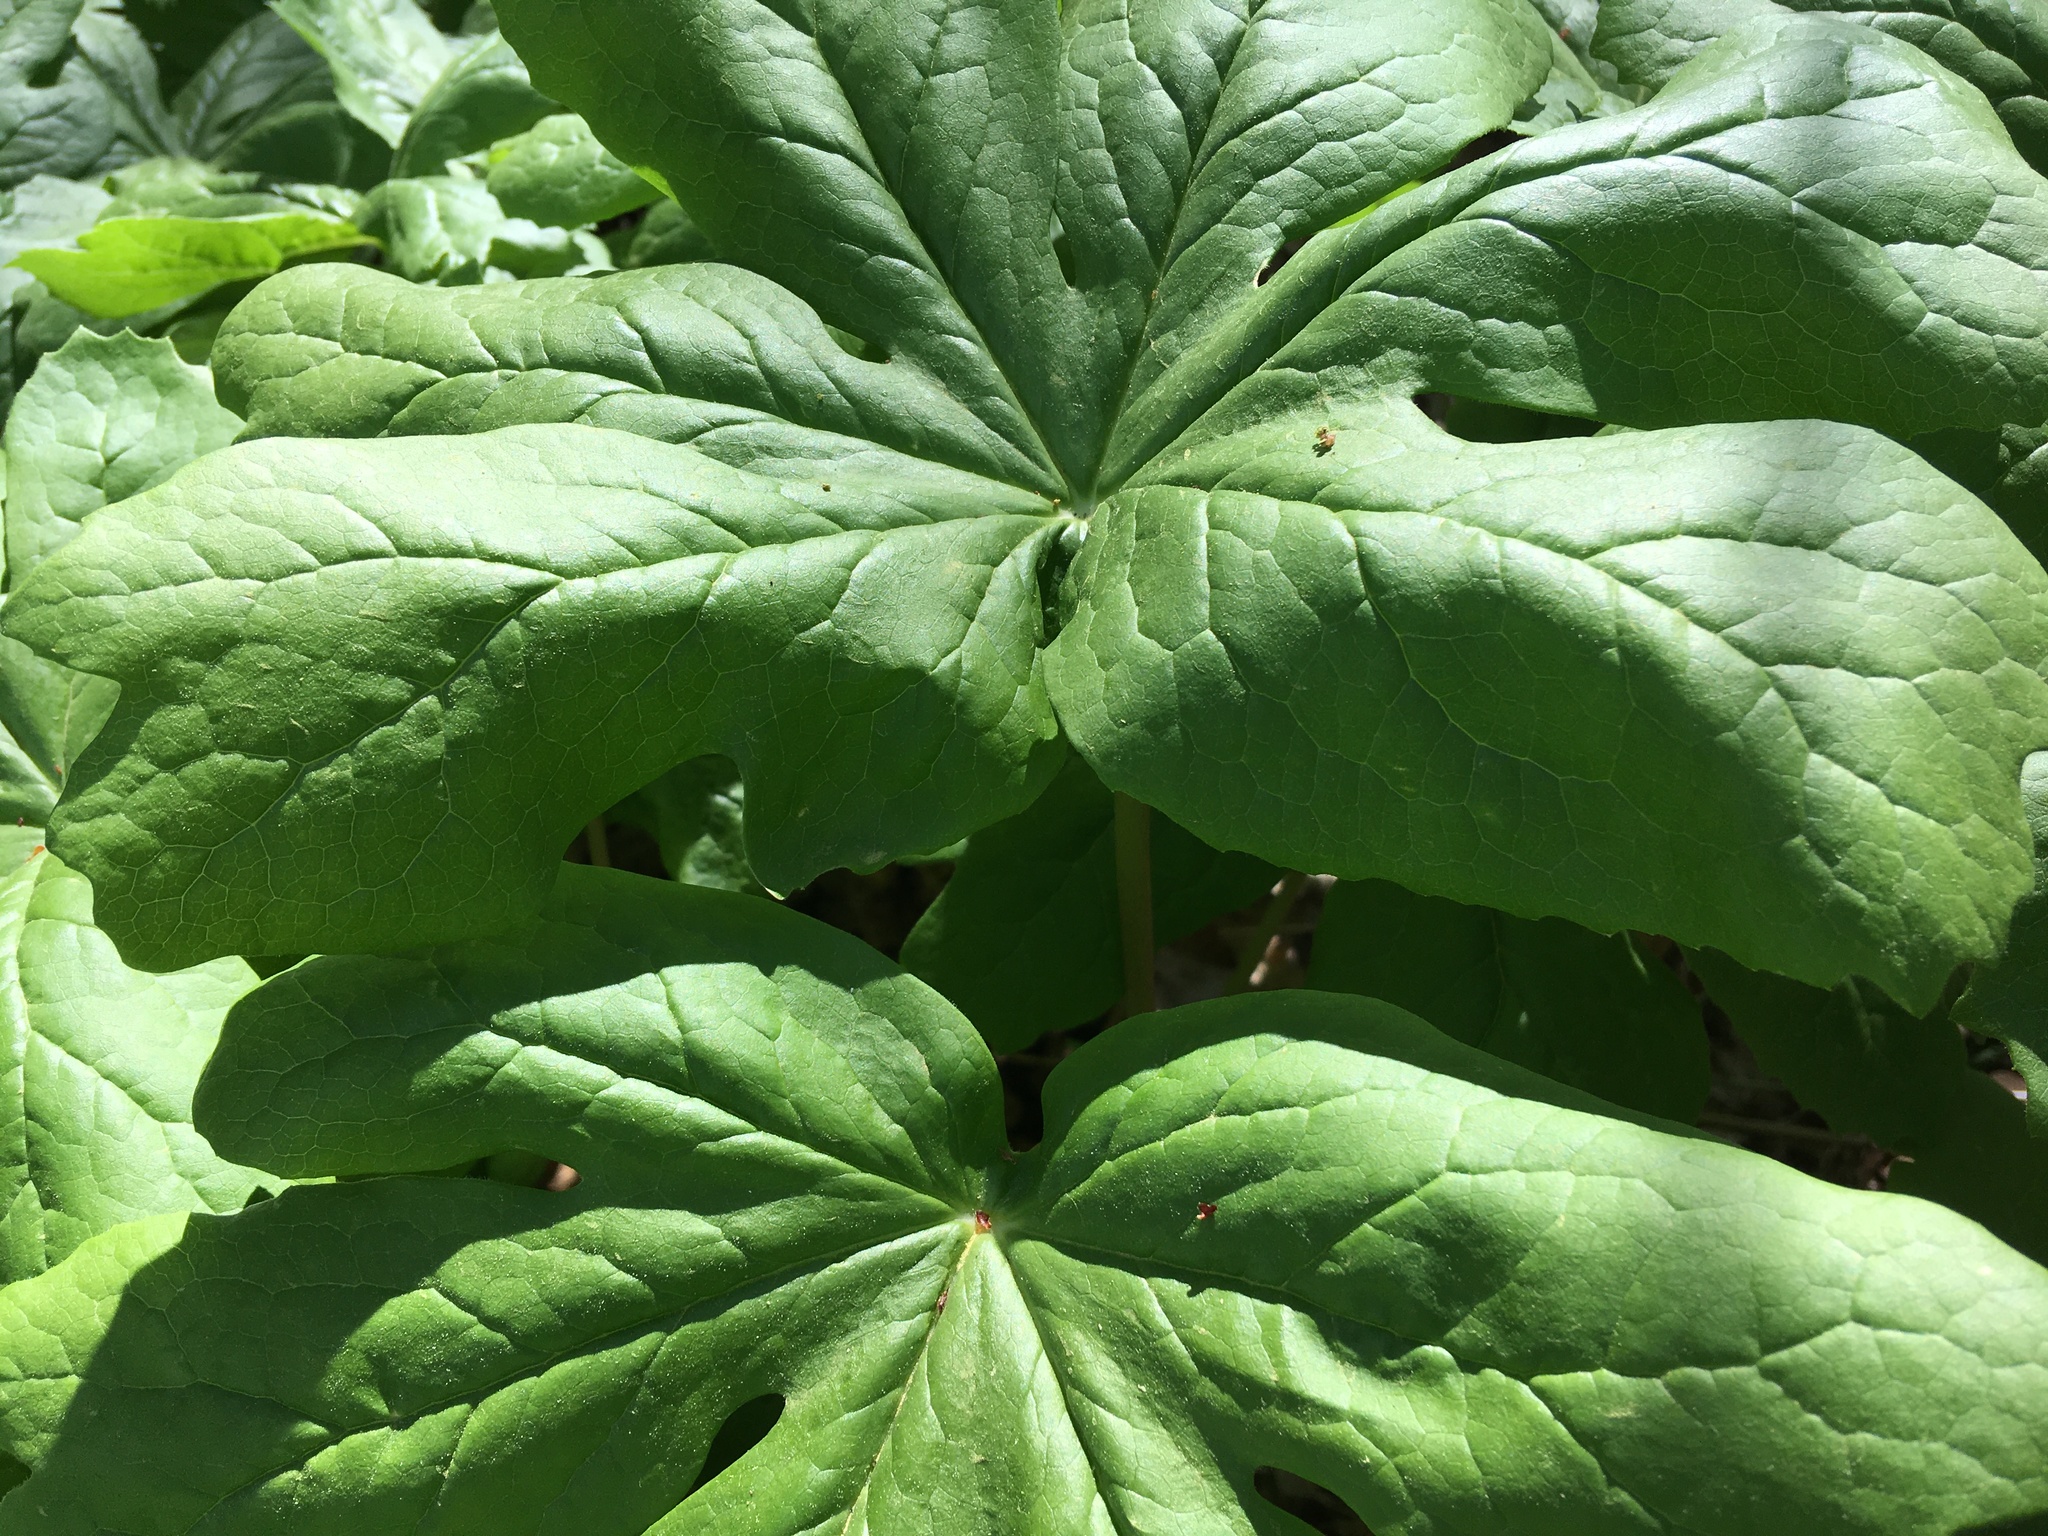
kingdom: Plantae
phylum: Tracheophyta
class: Magnoliopsida
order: Ranunculales
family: Berberidaceae
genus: Podophyllum
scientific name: Podophyllum peltatum
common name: Wild mandrake
